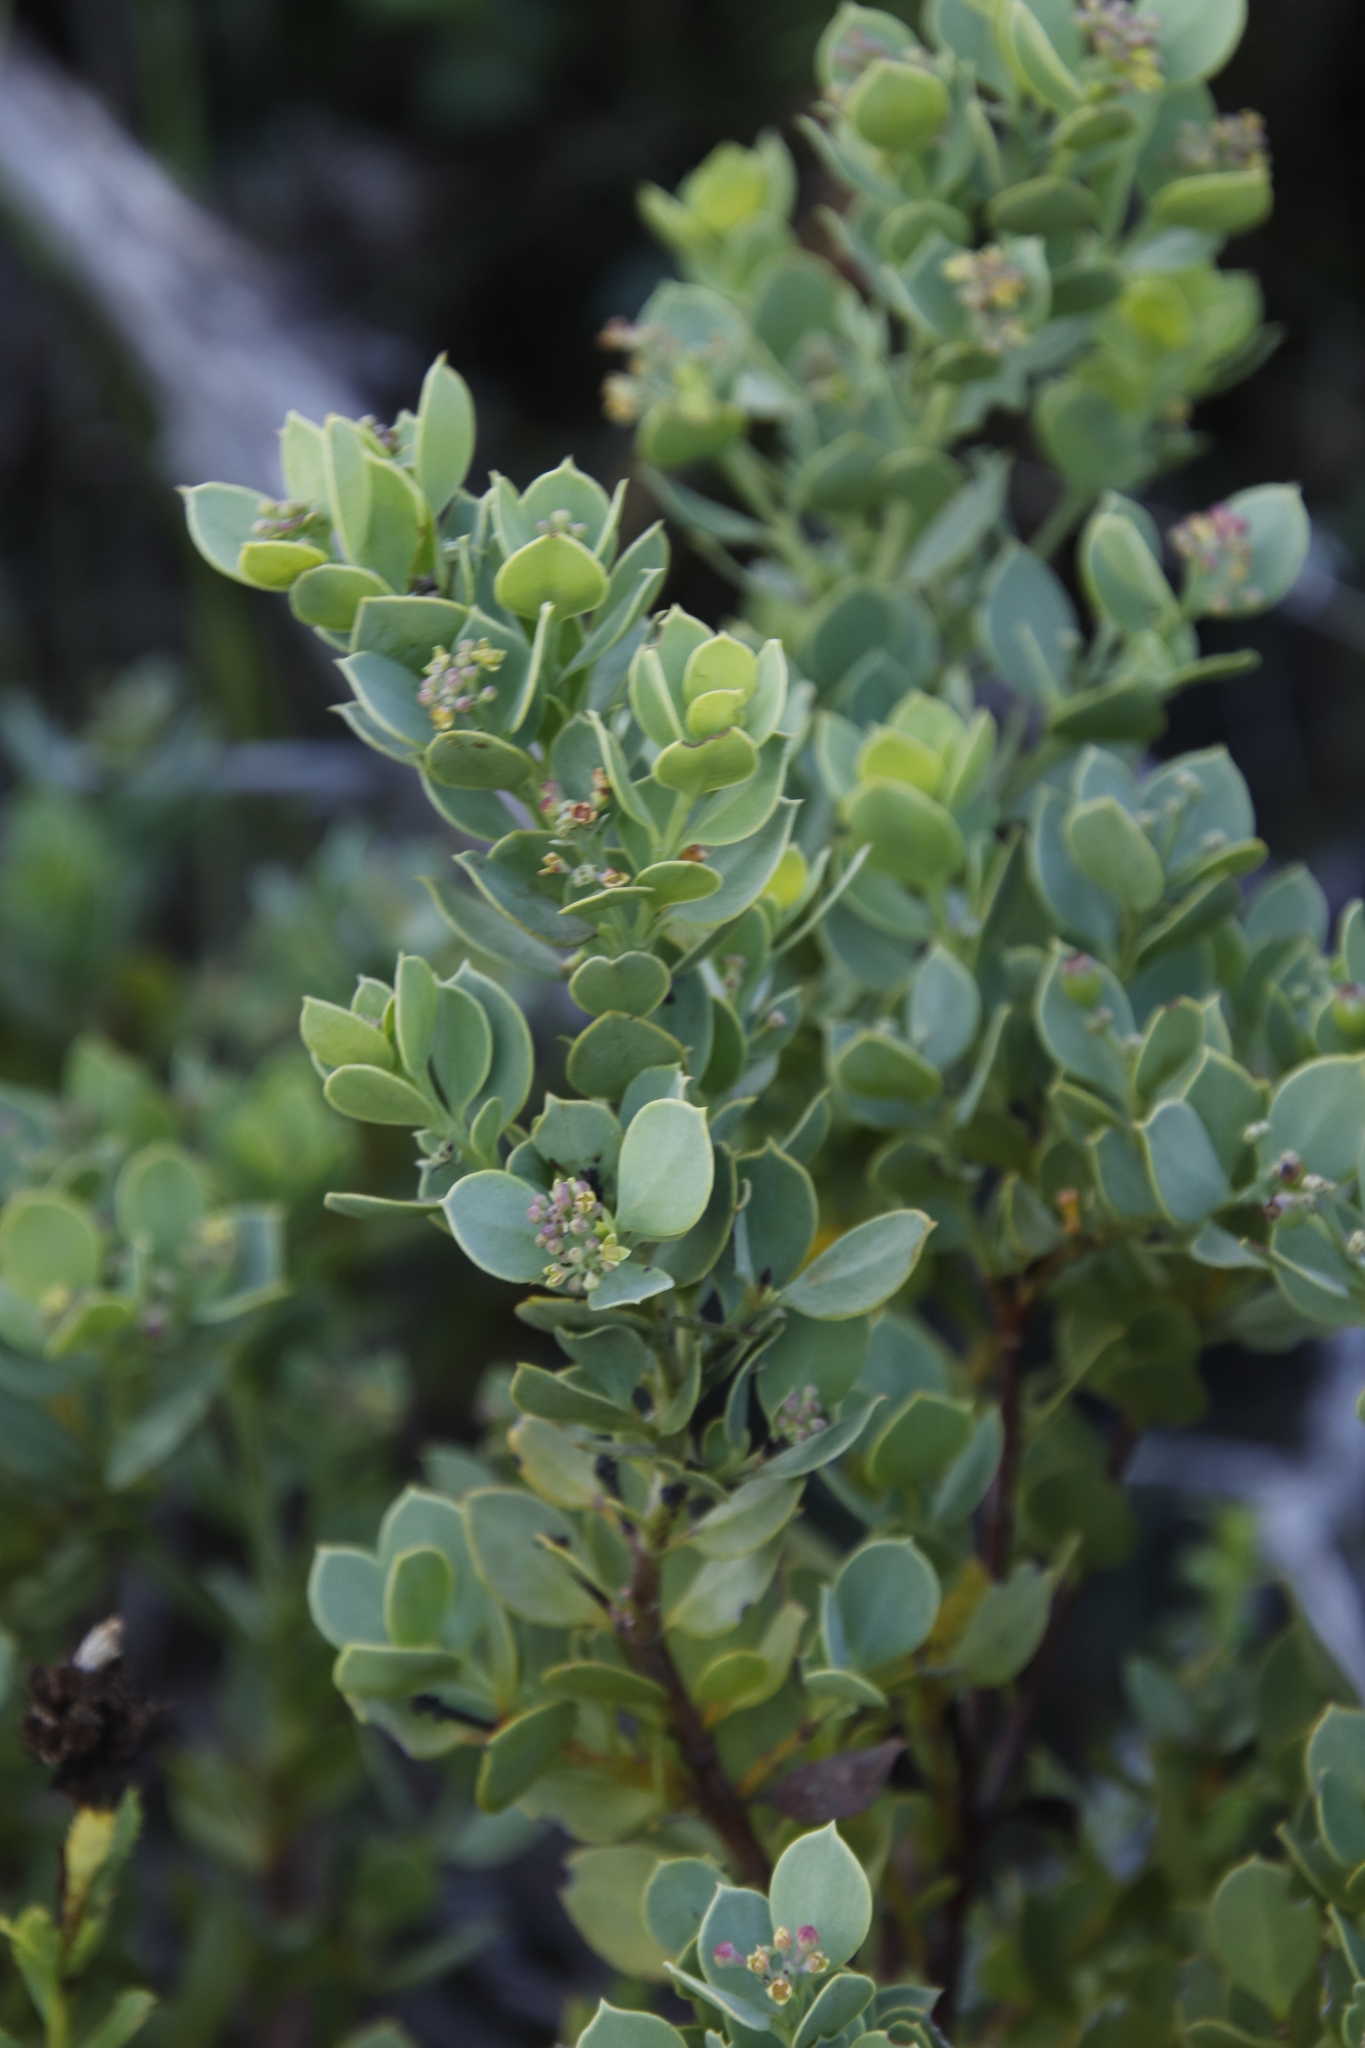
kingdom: Plantae
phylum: Tracheophyta
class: Magnoliopsida
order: Santalales
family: Santalaceae
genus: Osyris
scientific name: Osyris compressa
